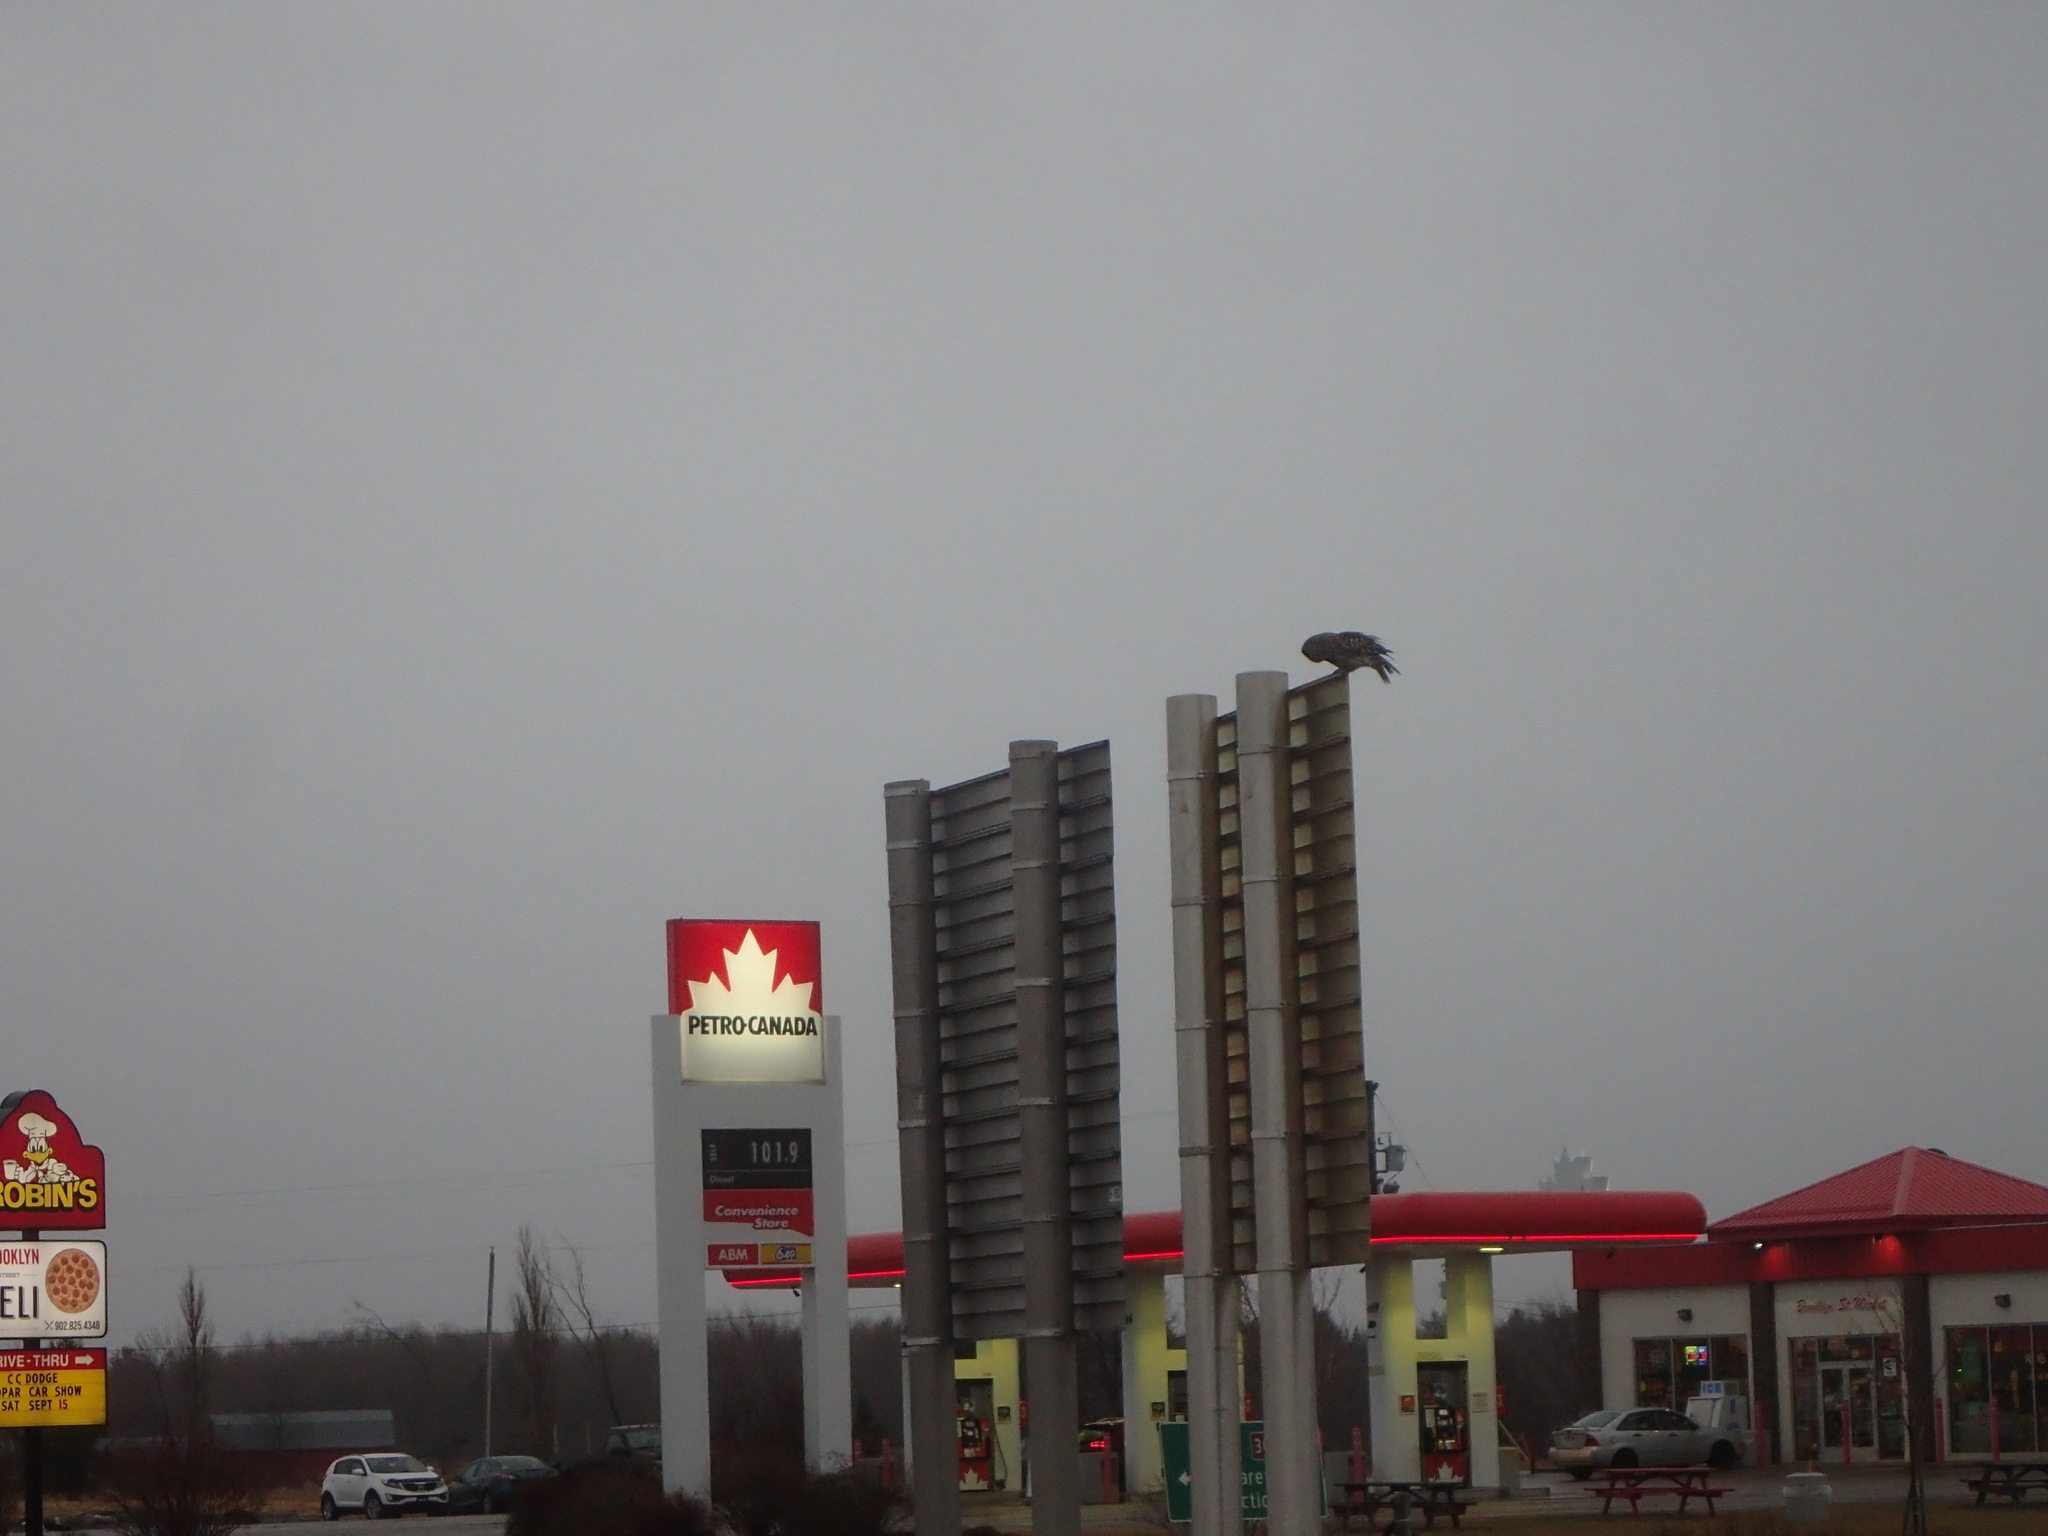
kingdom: Animalia
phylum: Chordata
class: Aves
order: Strigiformes
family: Strigidae
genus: Strix
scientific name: Strix varia
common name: Barred owl
